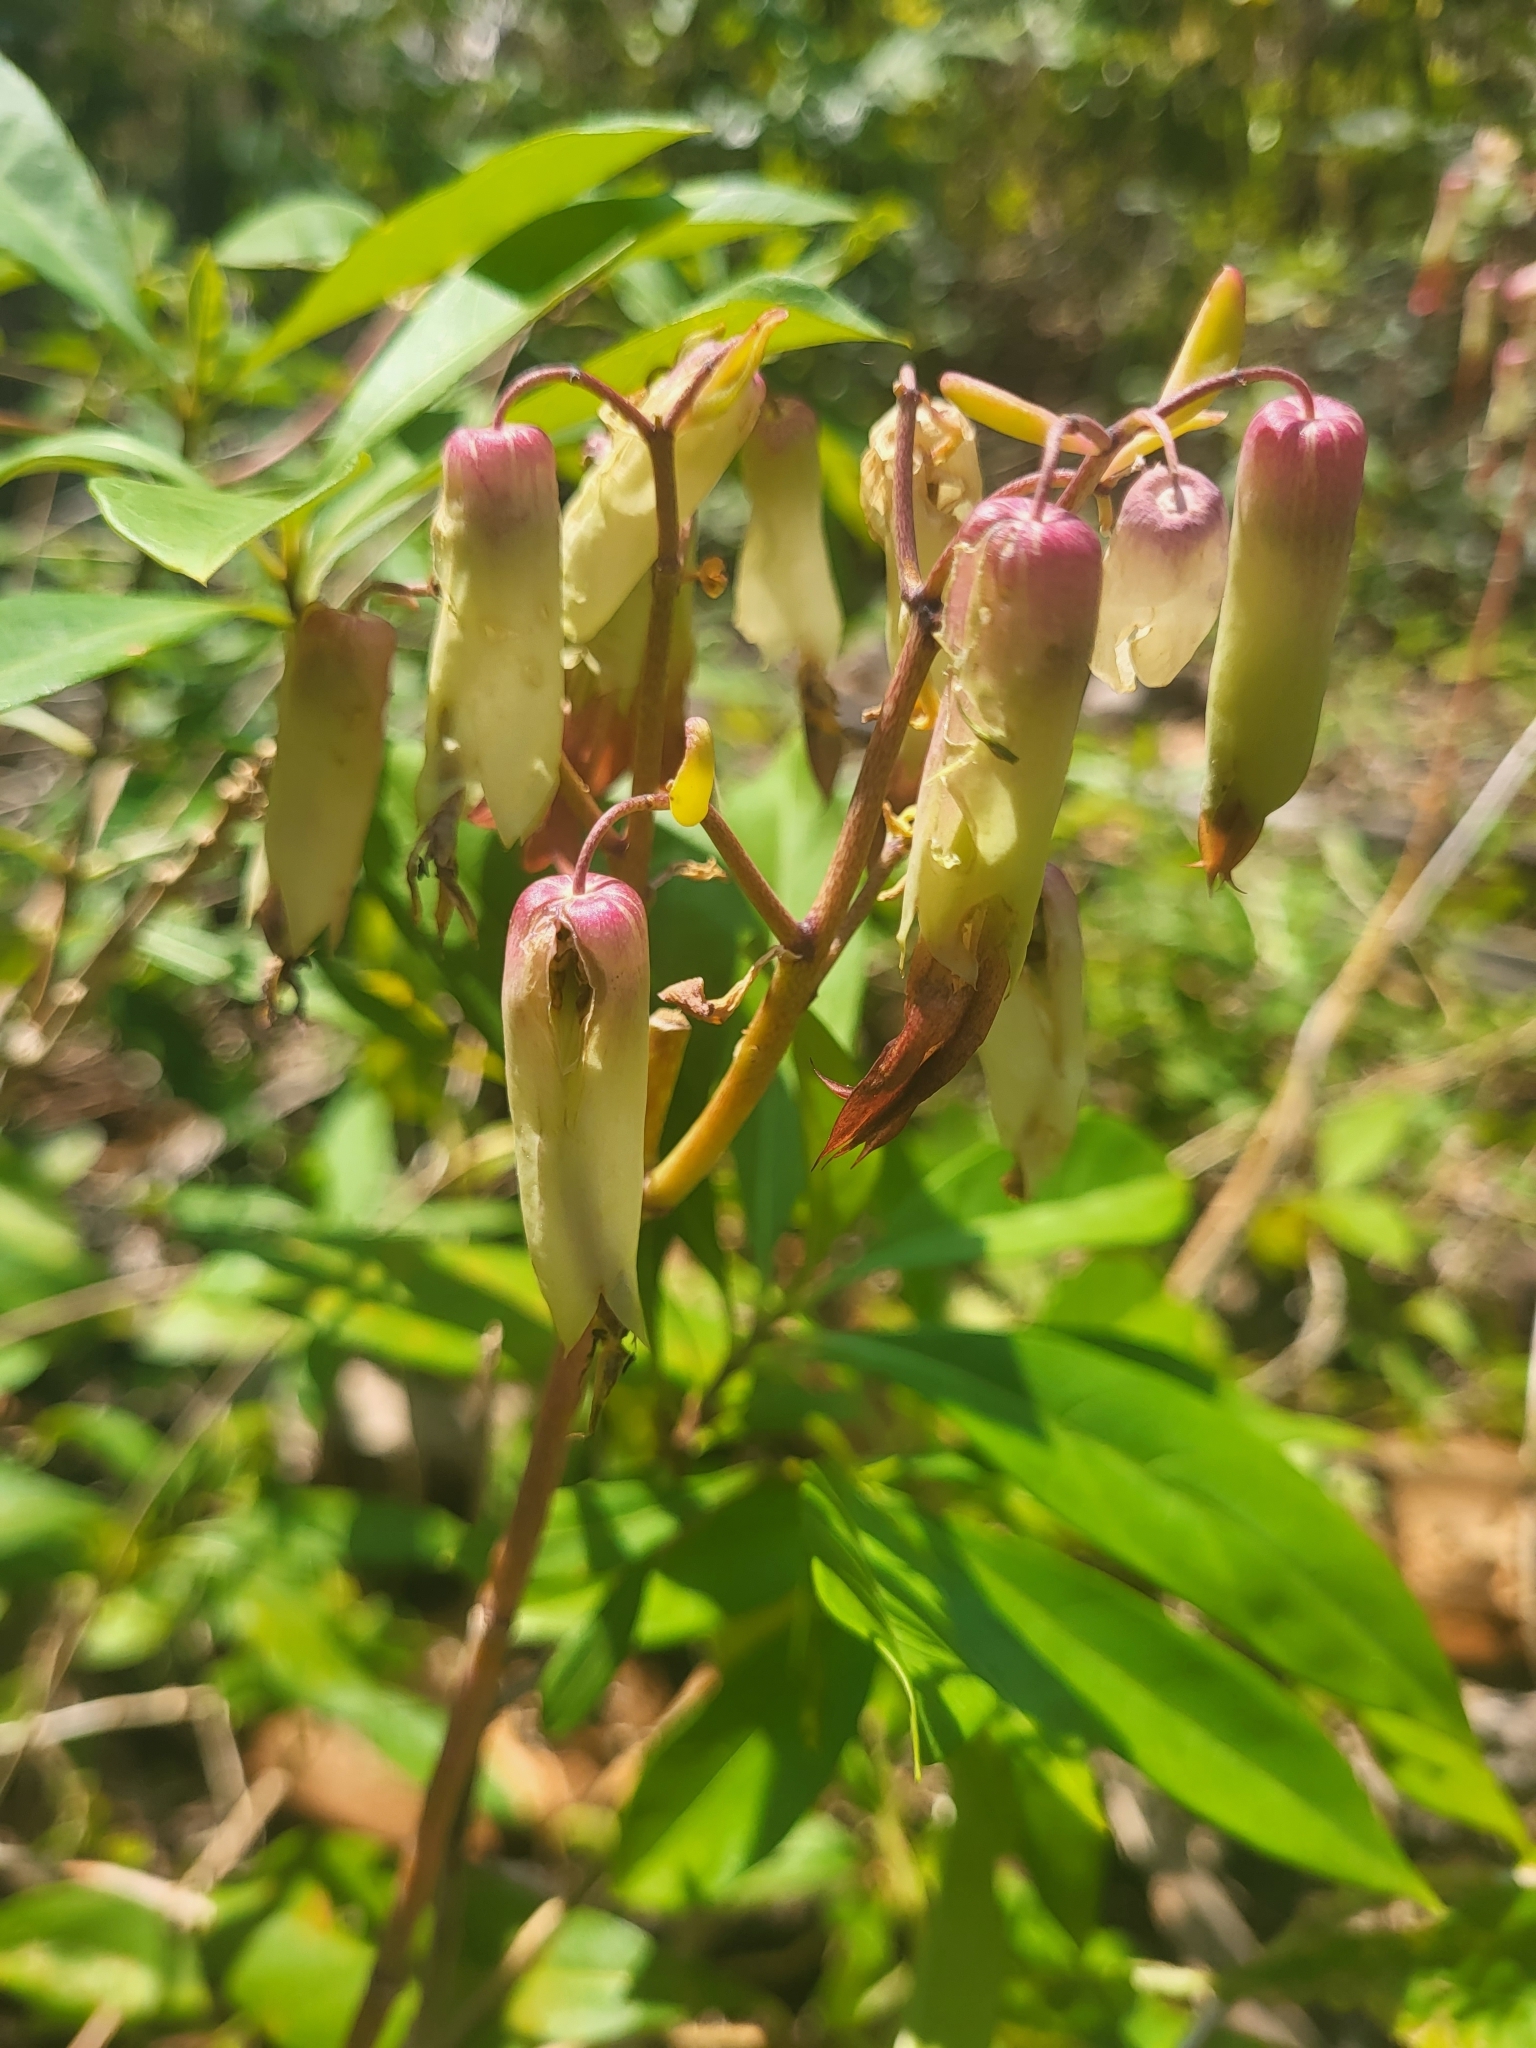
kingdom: Plantae
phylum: Tracheophyta
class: Magnoliopsida
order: Saxifragales
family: Crassulaceae
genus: Kalanchoe
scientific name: Kalanchoe pinnata
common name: Cathedral bells
